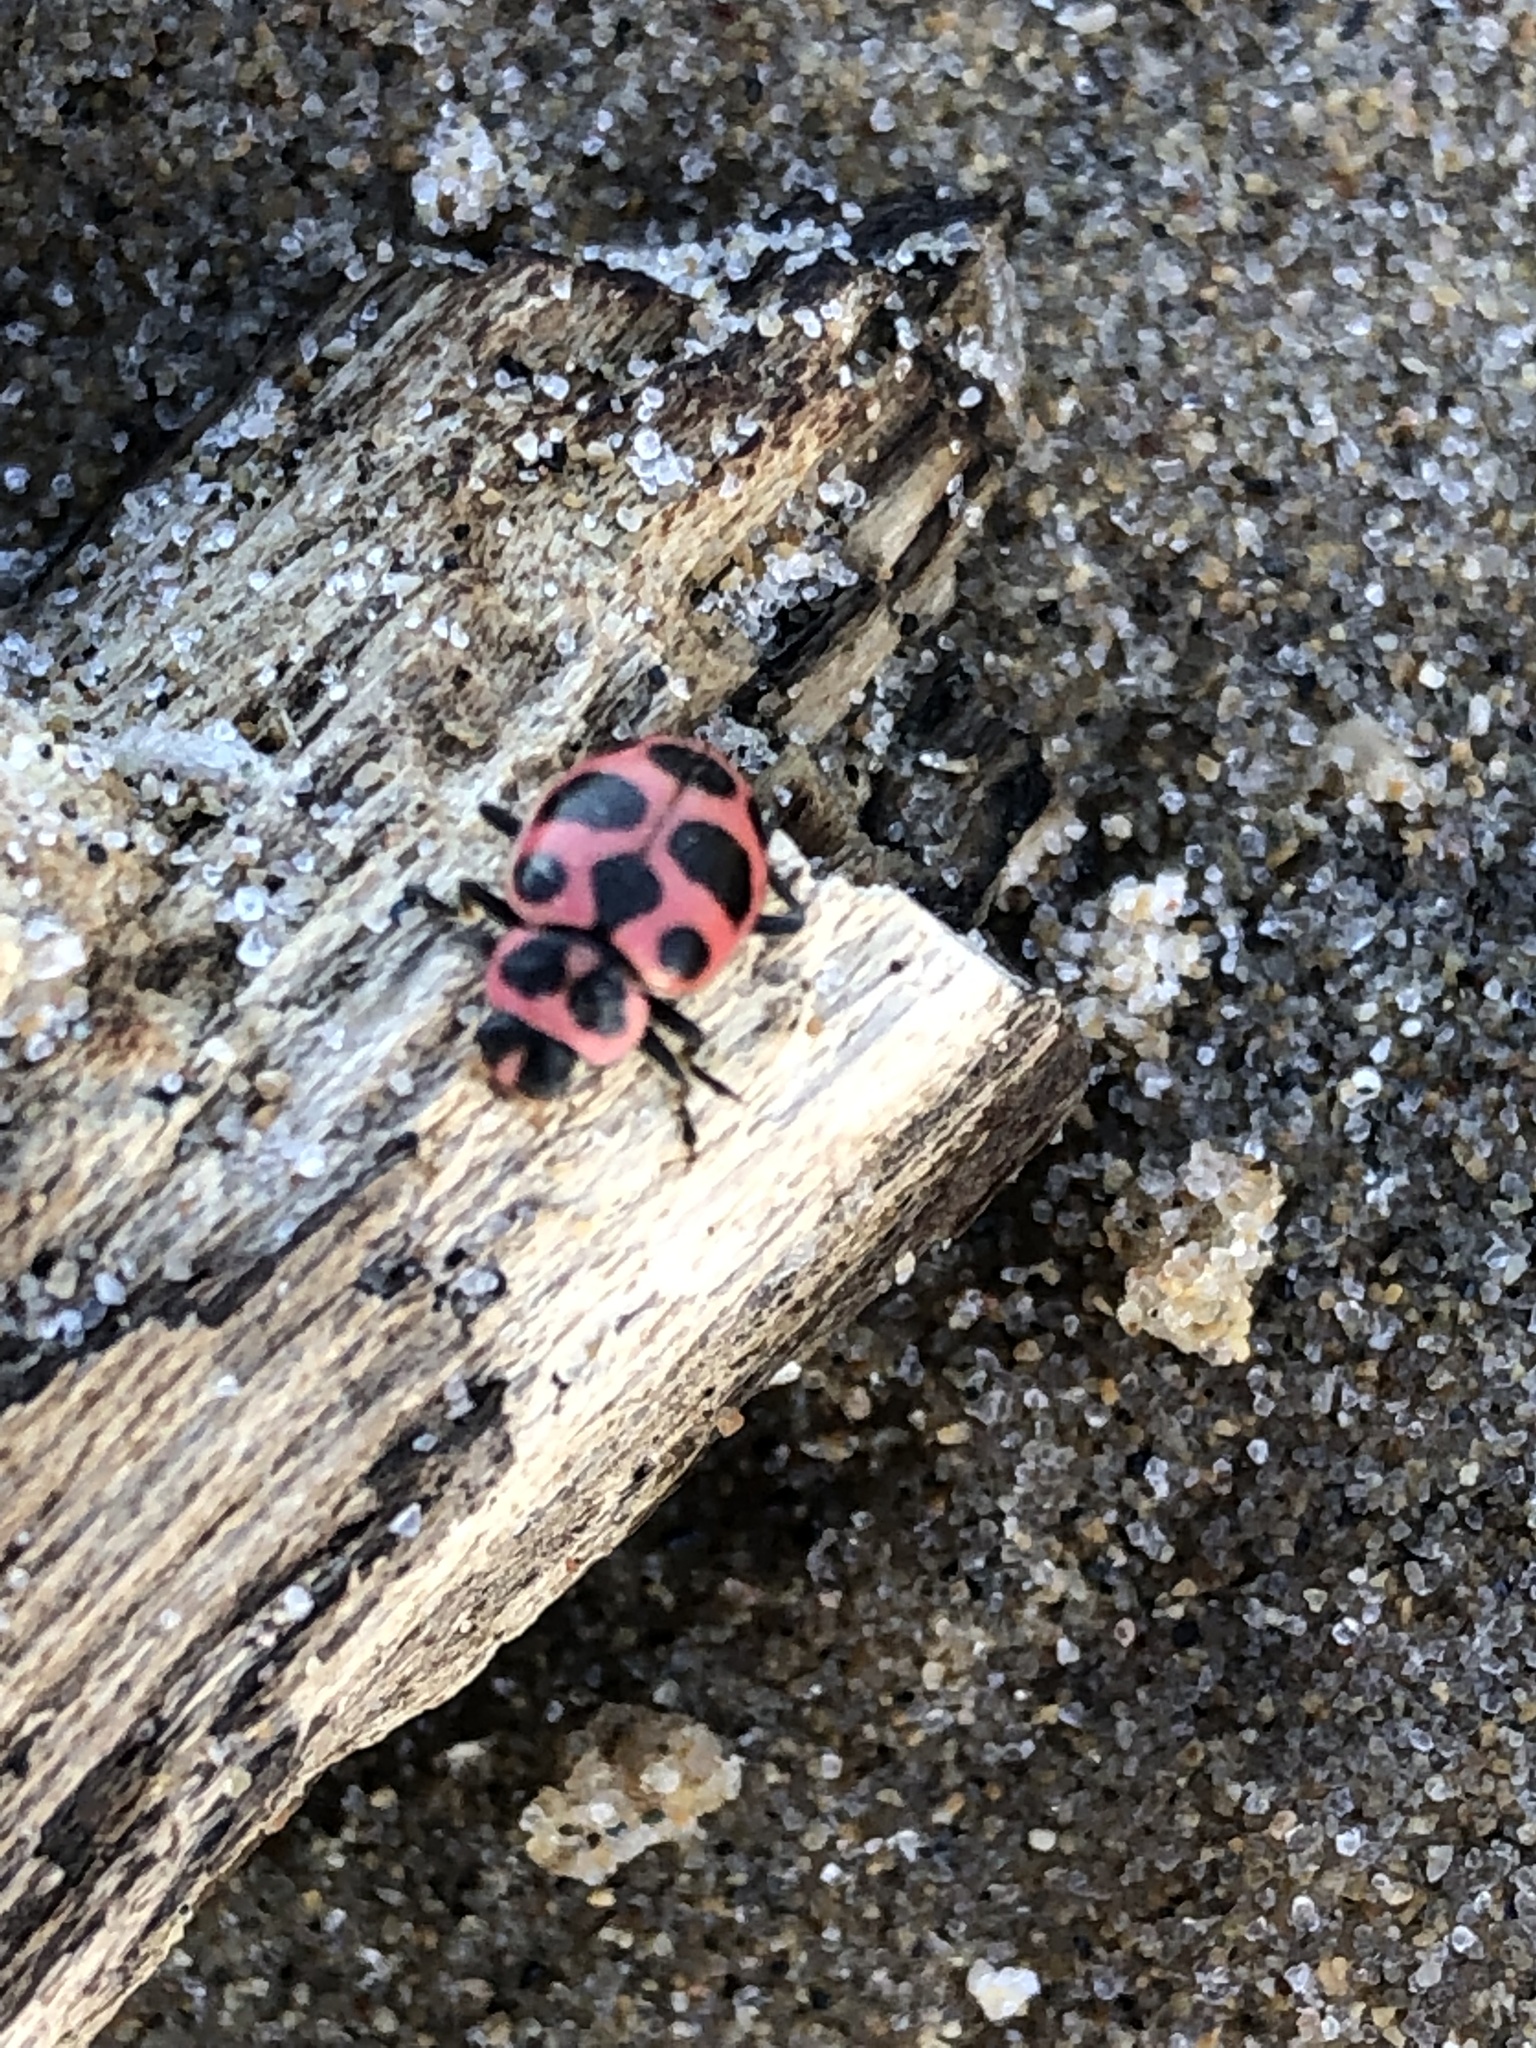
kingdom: Animalia
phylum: Arthropoda
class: Insecta
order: Coleoptera
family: Coccinellidae
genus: Coleomegilla
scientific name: Coleomegilla maculata
